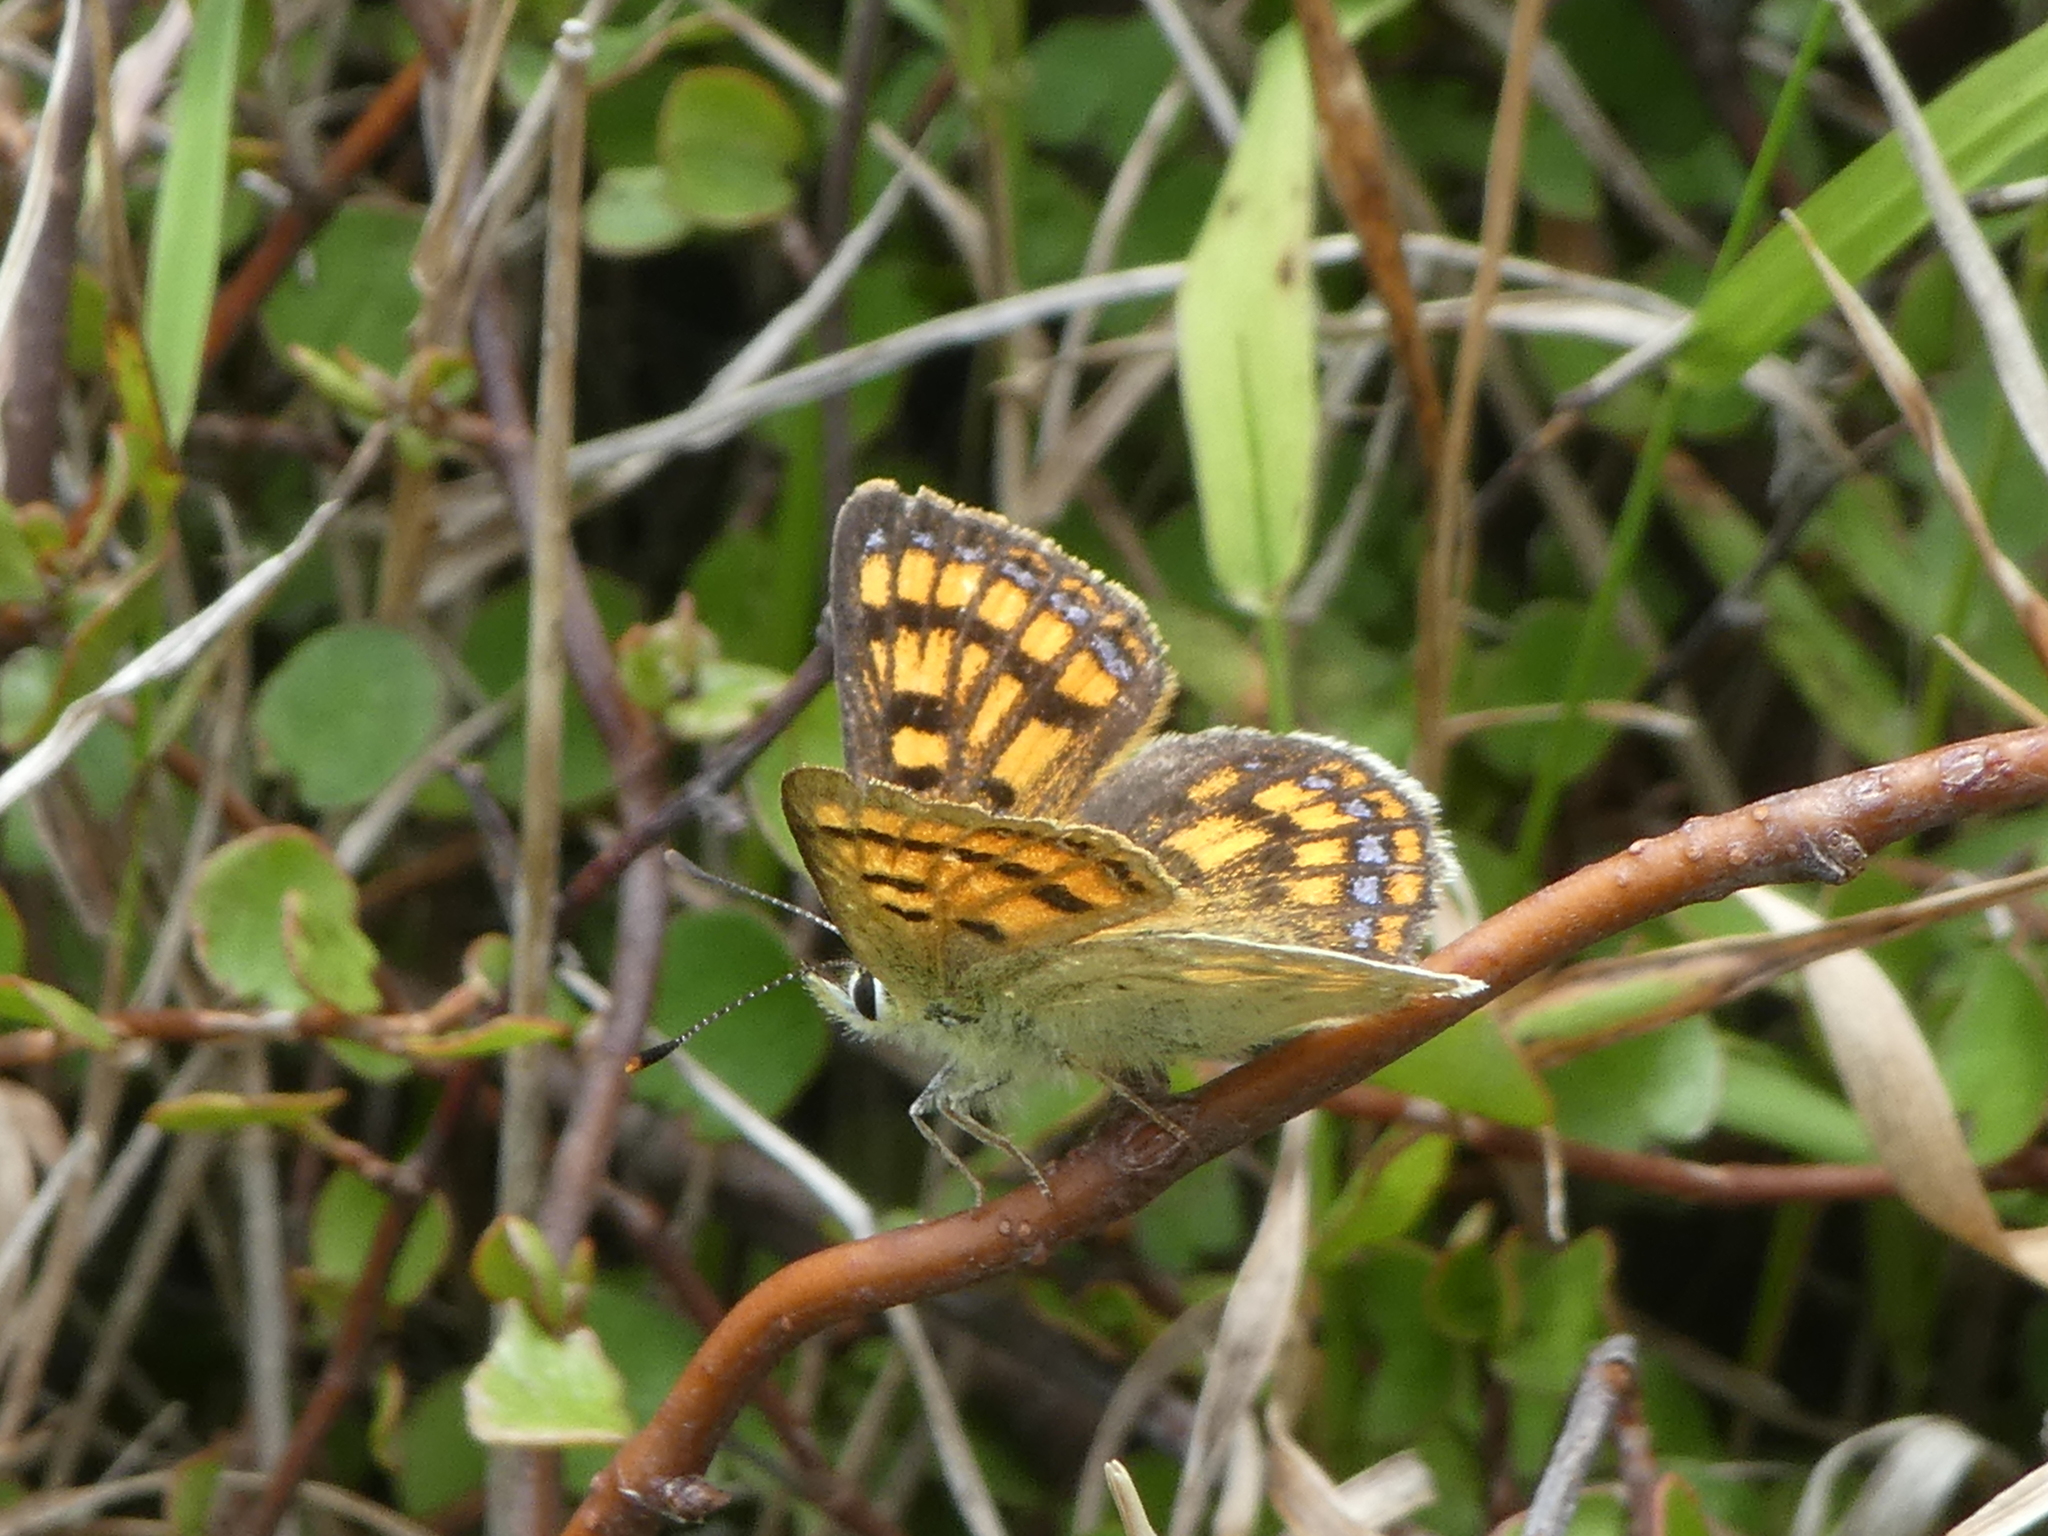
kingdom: Animalia
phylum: Arthropoda
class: Insecta
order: Lepidoptera
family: Lycaenidae
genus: Lycaena
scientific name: Lycaena salustius
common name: North island coastal copper
